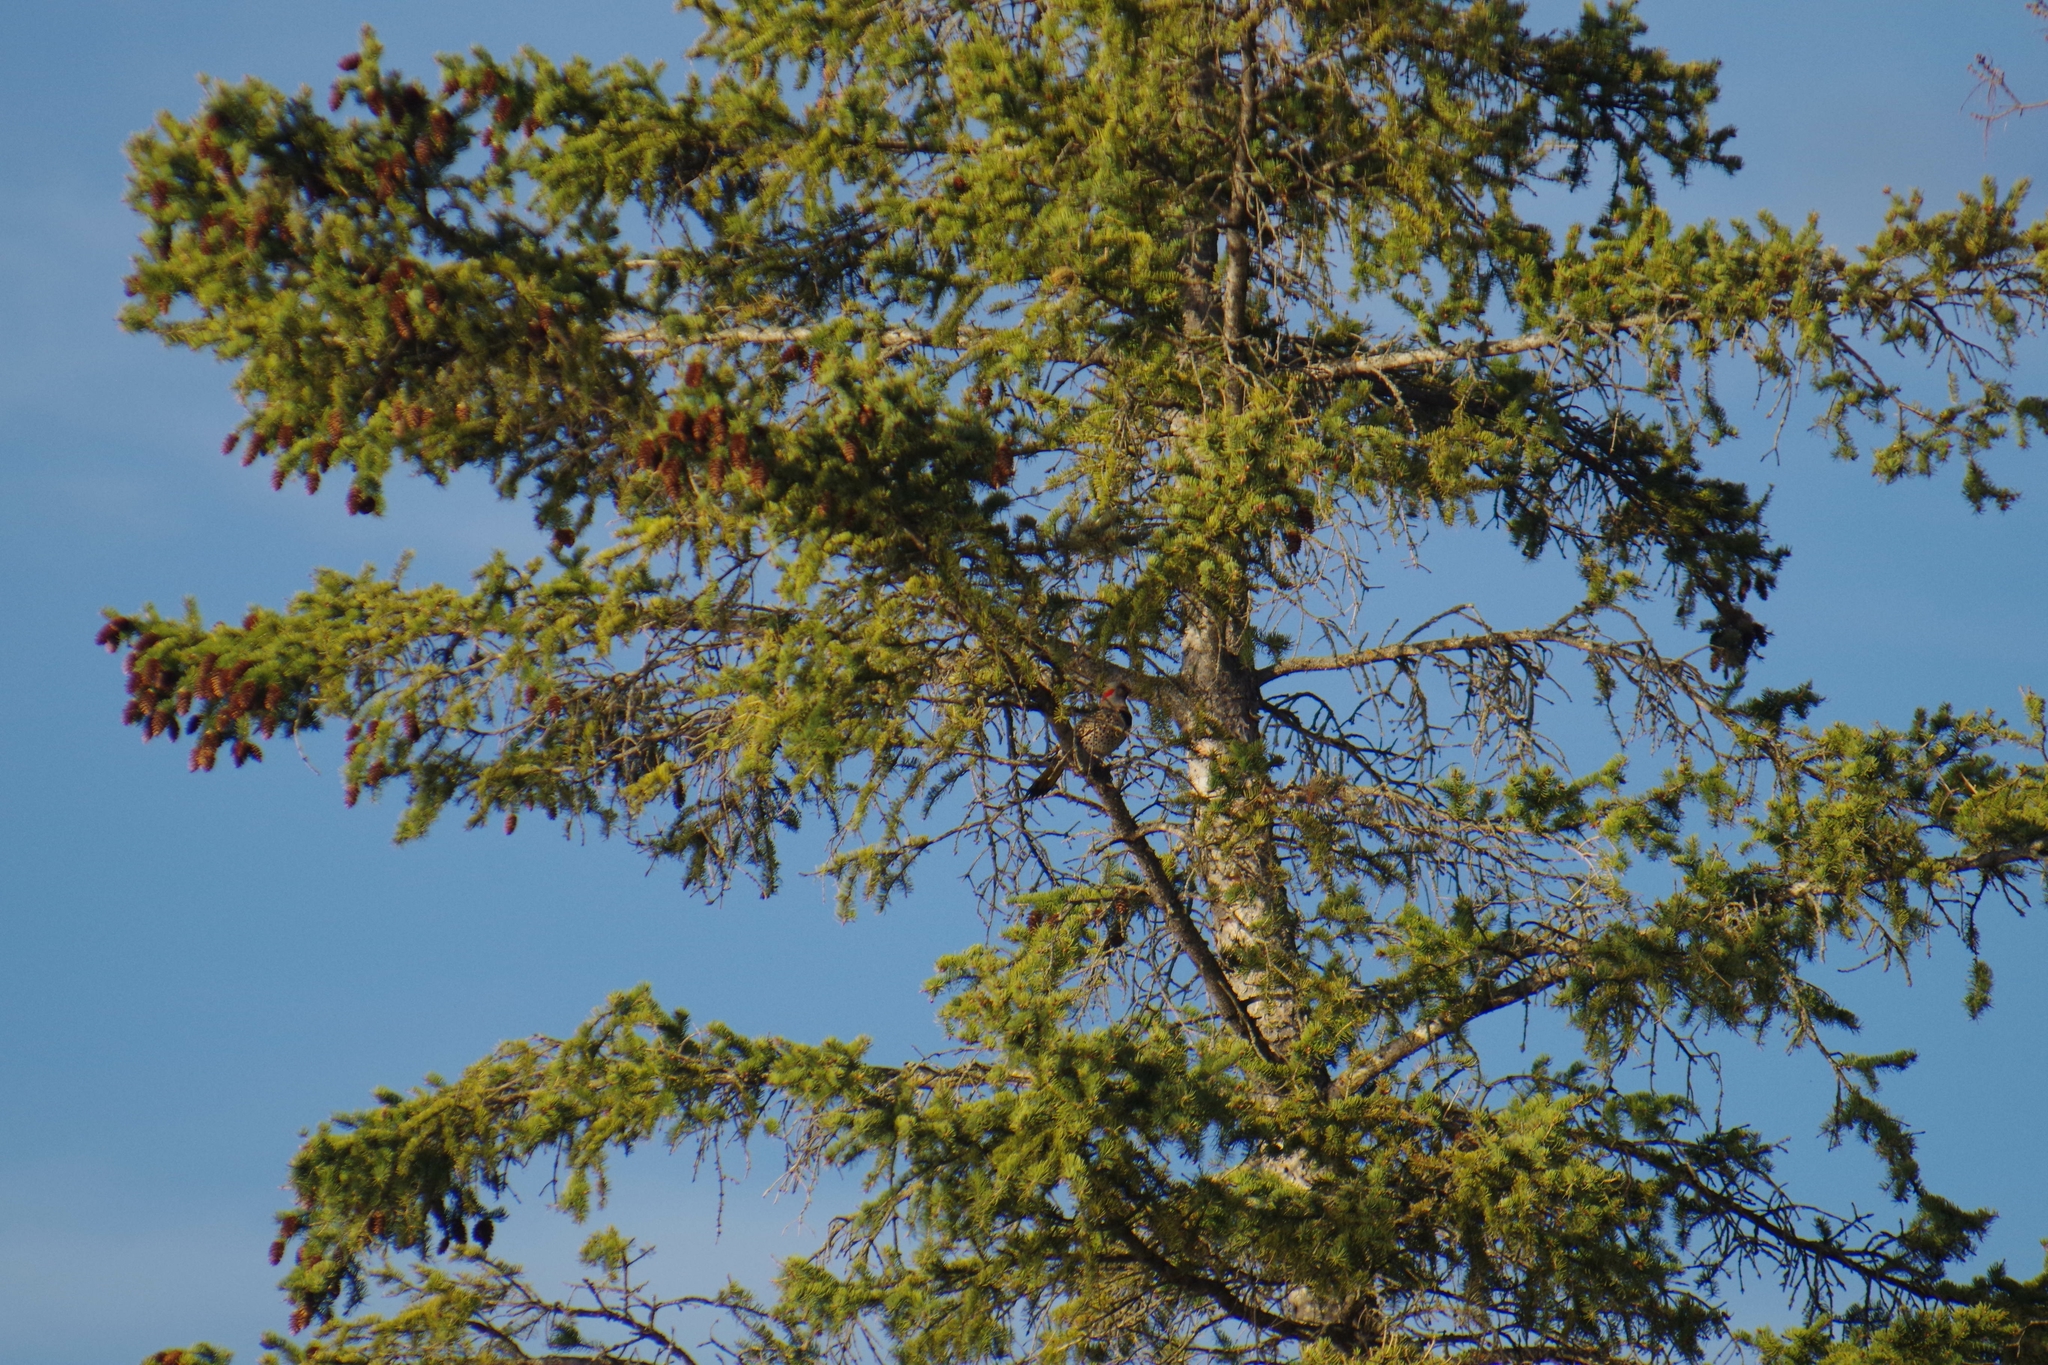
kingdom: Plantae
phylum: Tracheophyta
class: Pinopsida
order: Pinales
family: Pinaceae
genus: Picea
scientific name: Picea glauca
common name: White spruce
